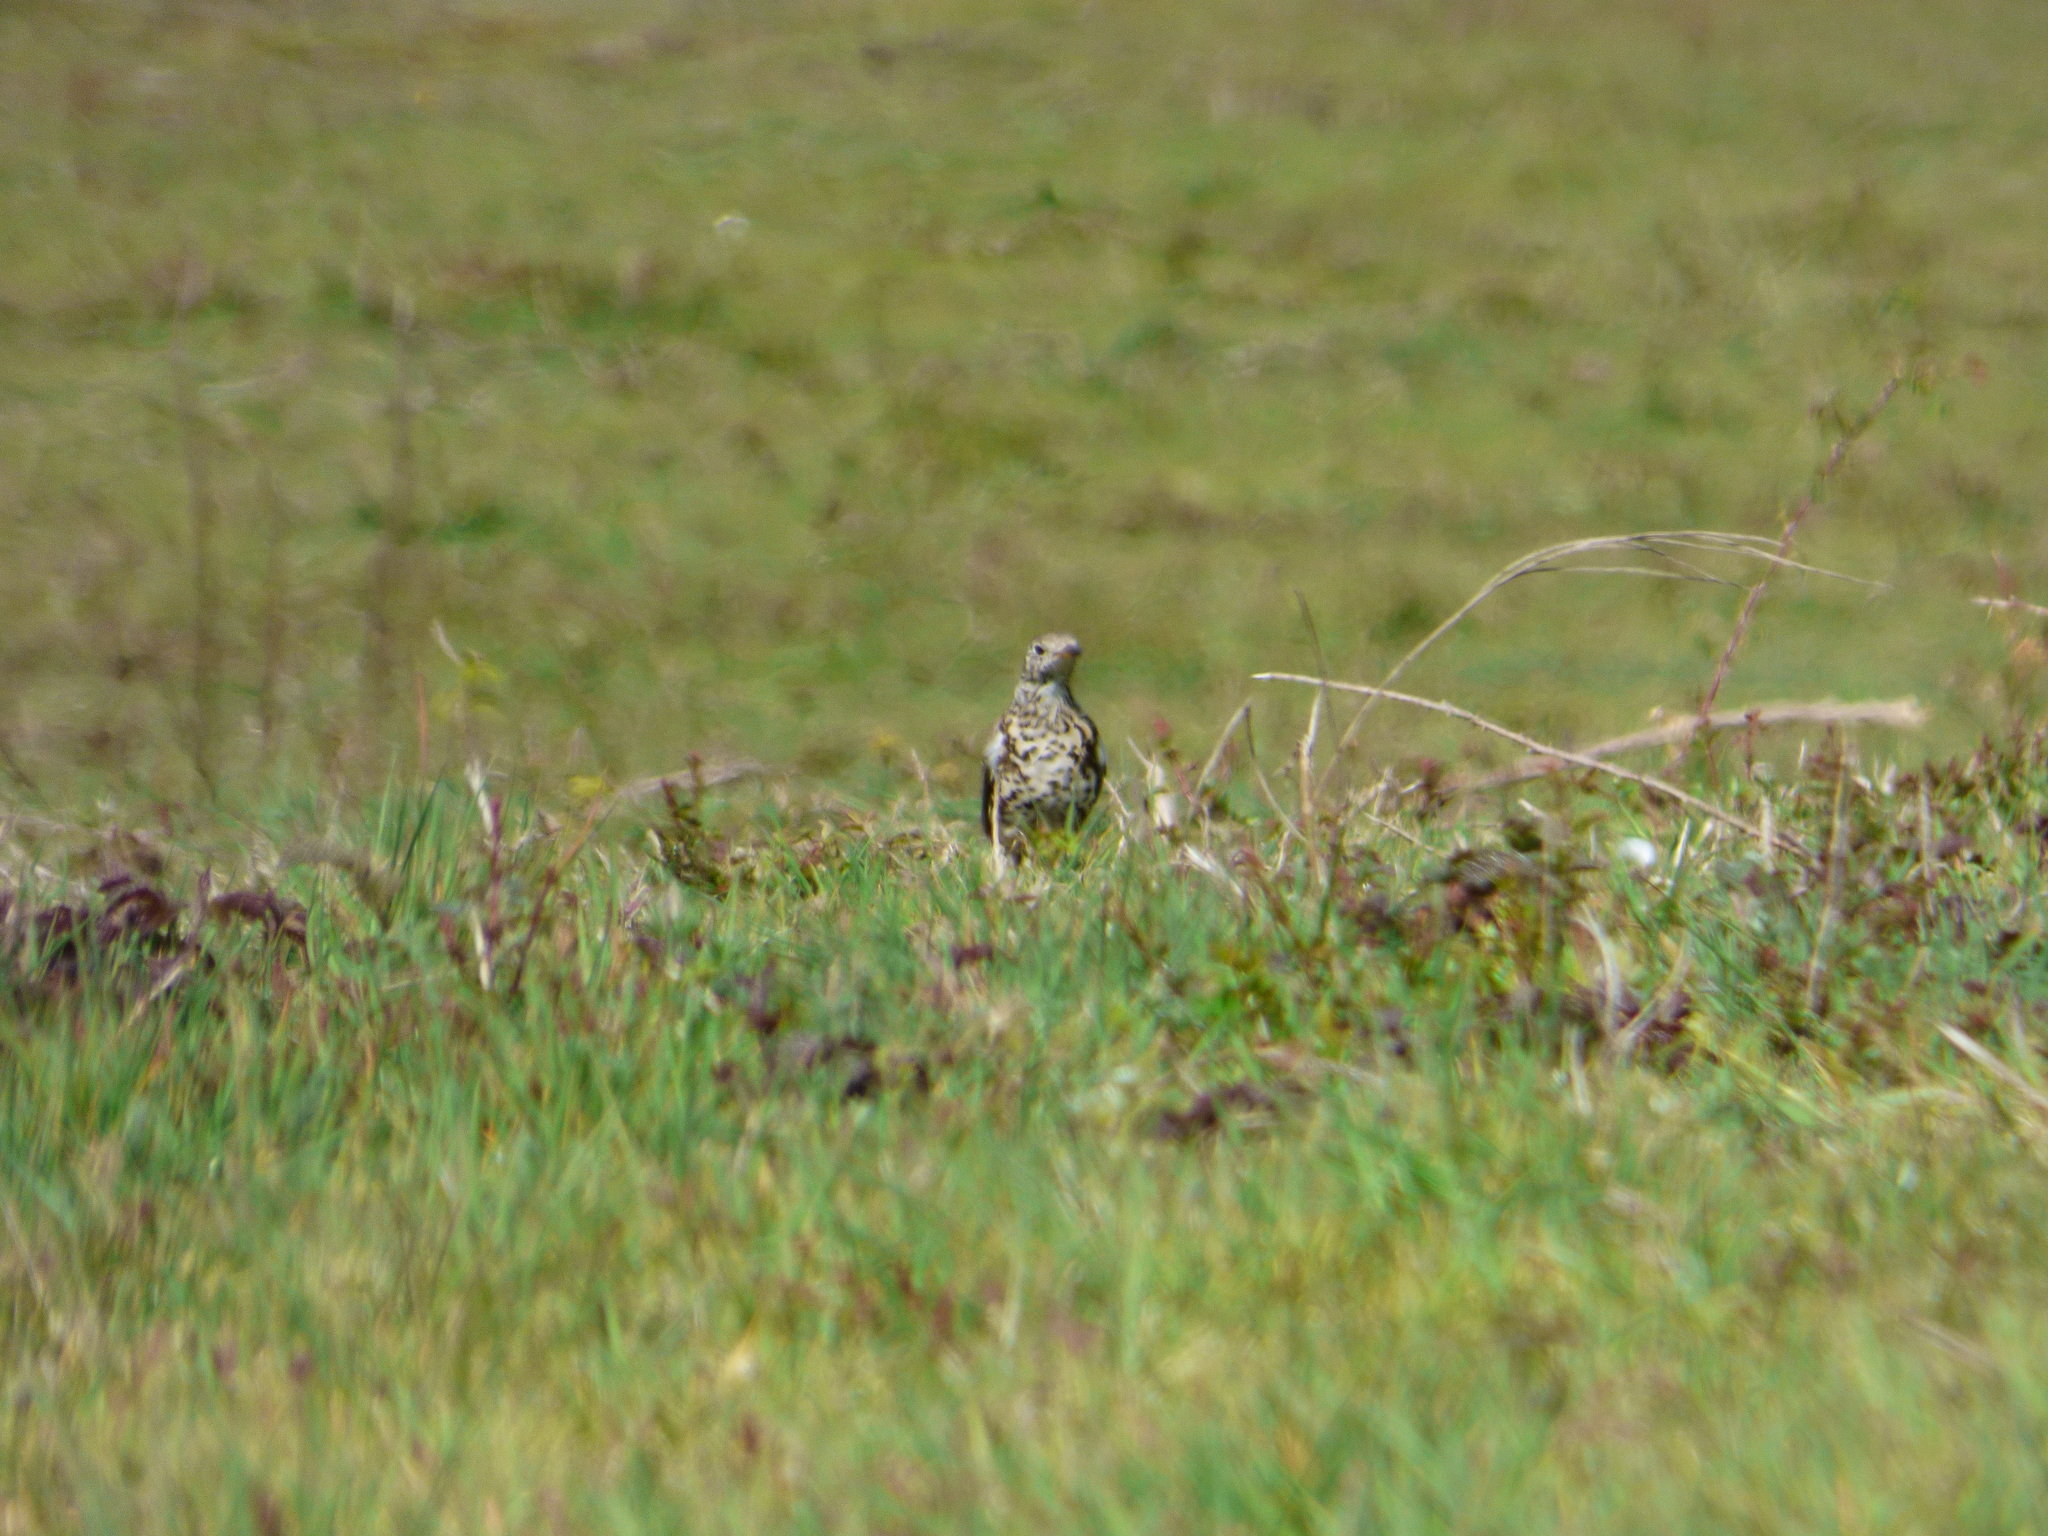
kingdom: Animalia
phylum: Chordata
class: Aves
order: Passeriformes
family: Turdidae
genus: Turdus
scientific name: Turdus viscivorus
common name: Mistle thrush
